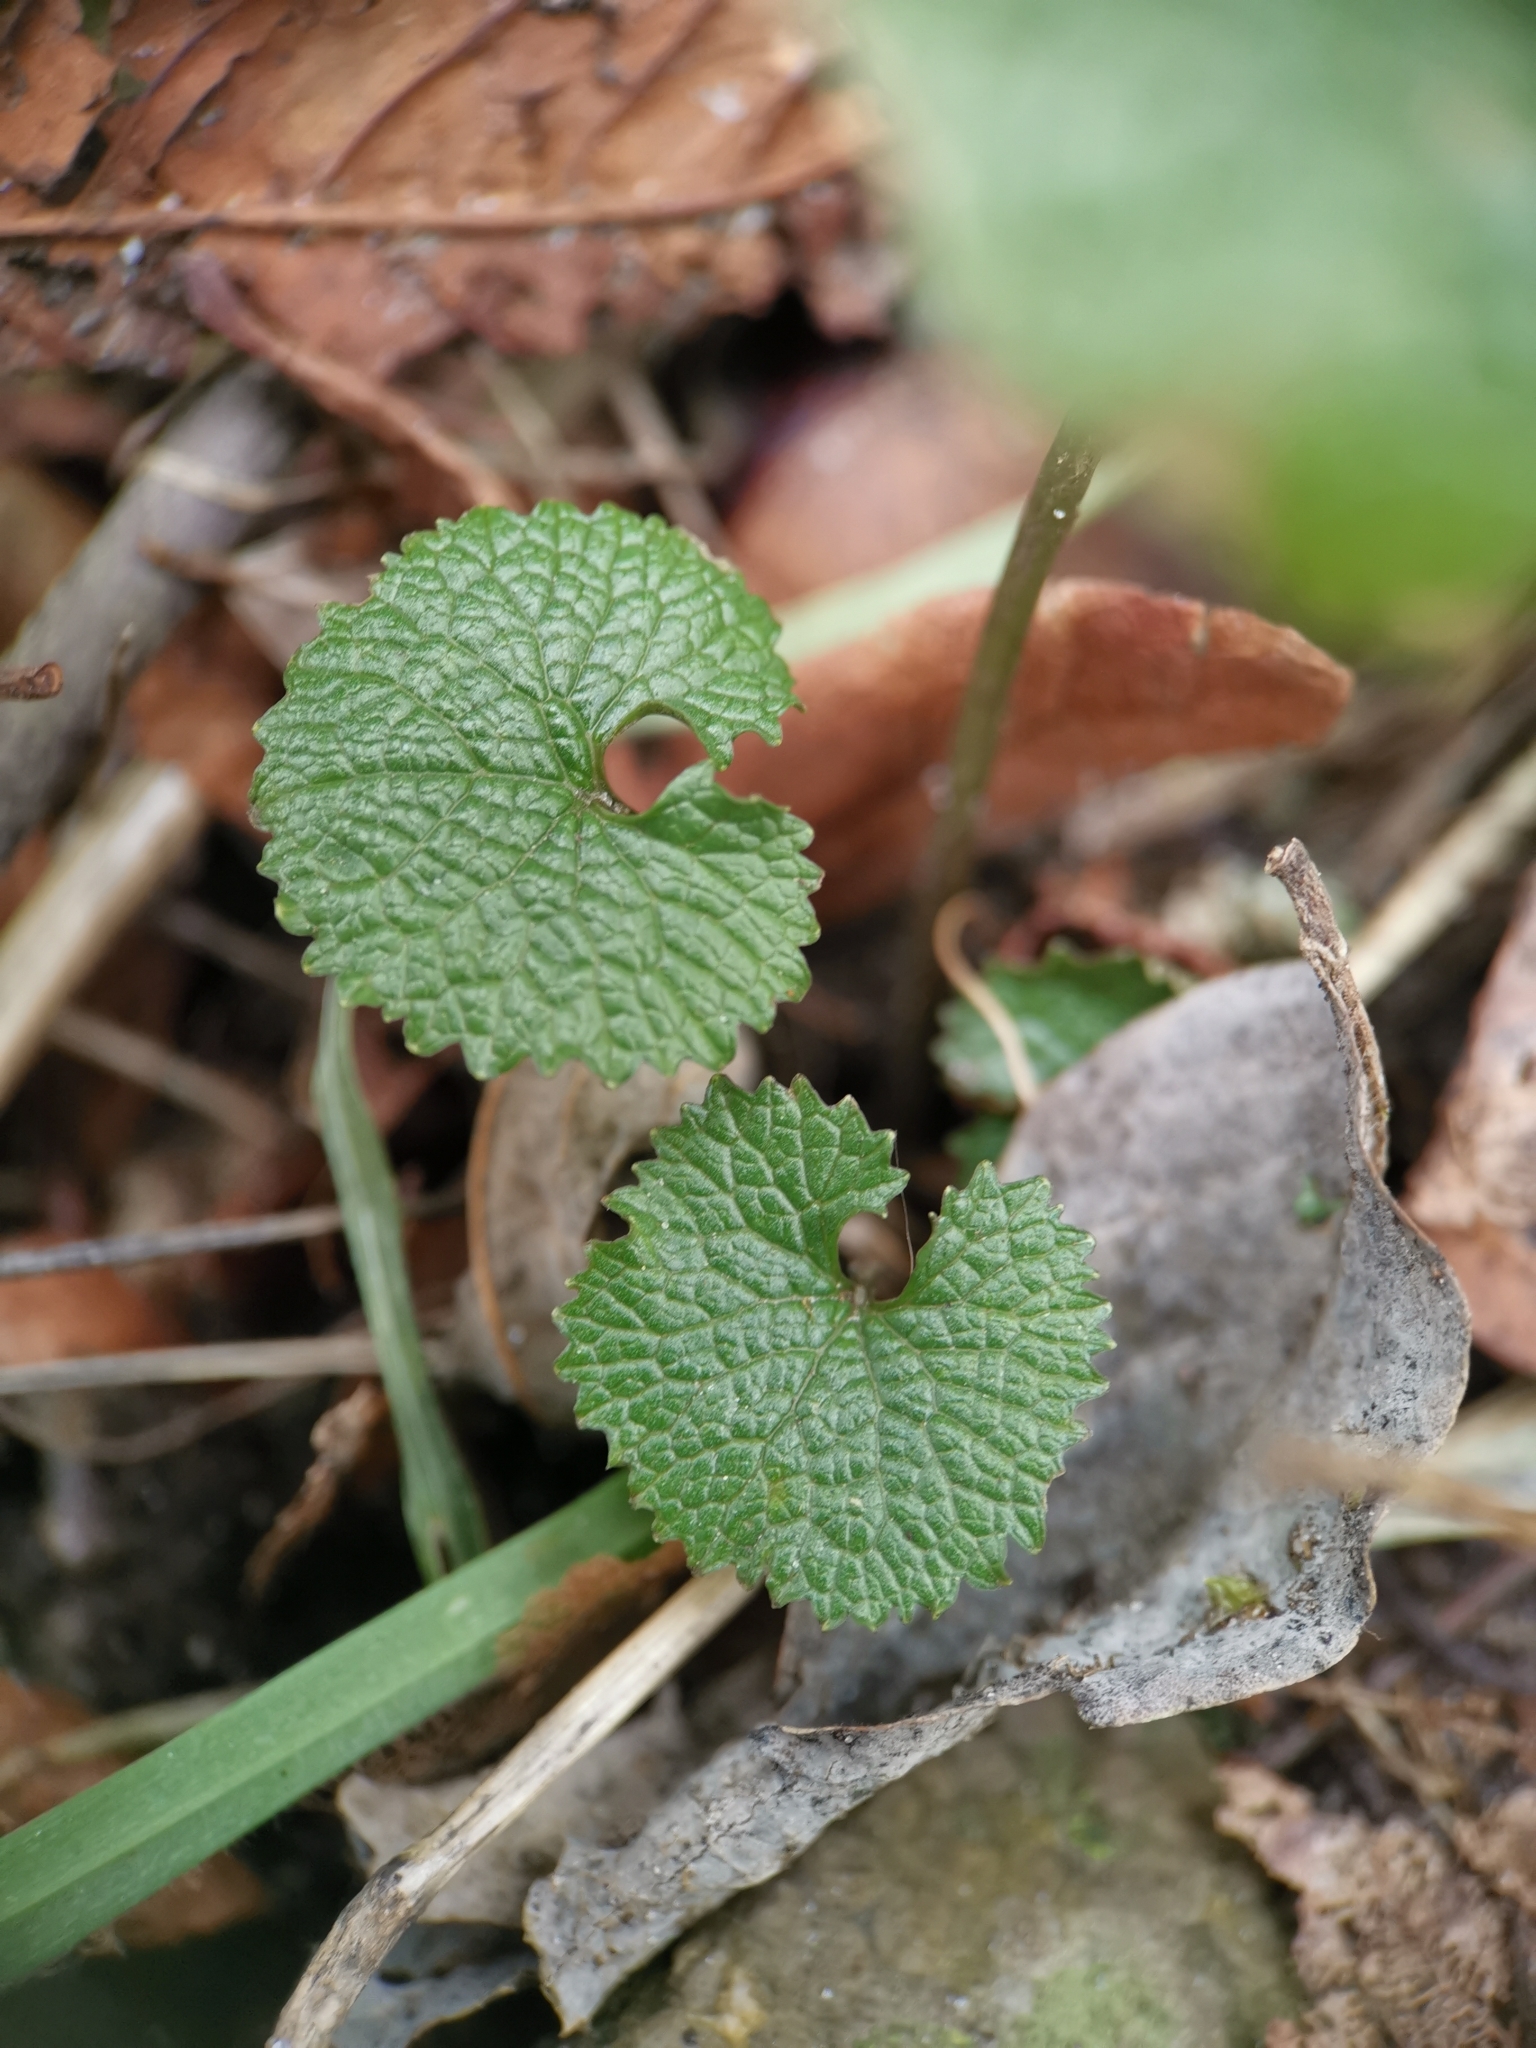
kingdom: Plantae
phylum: Tracheophyta
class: Magnoliopsida
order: Brassicales
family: Brassicaceae
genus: Alliaria
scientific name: Alliaria petiolata
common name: Garlic mustard
